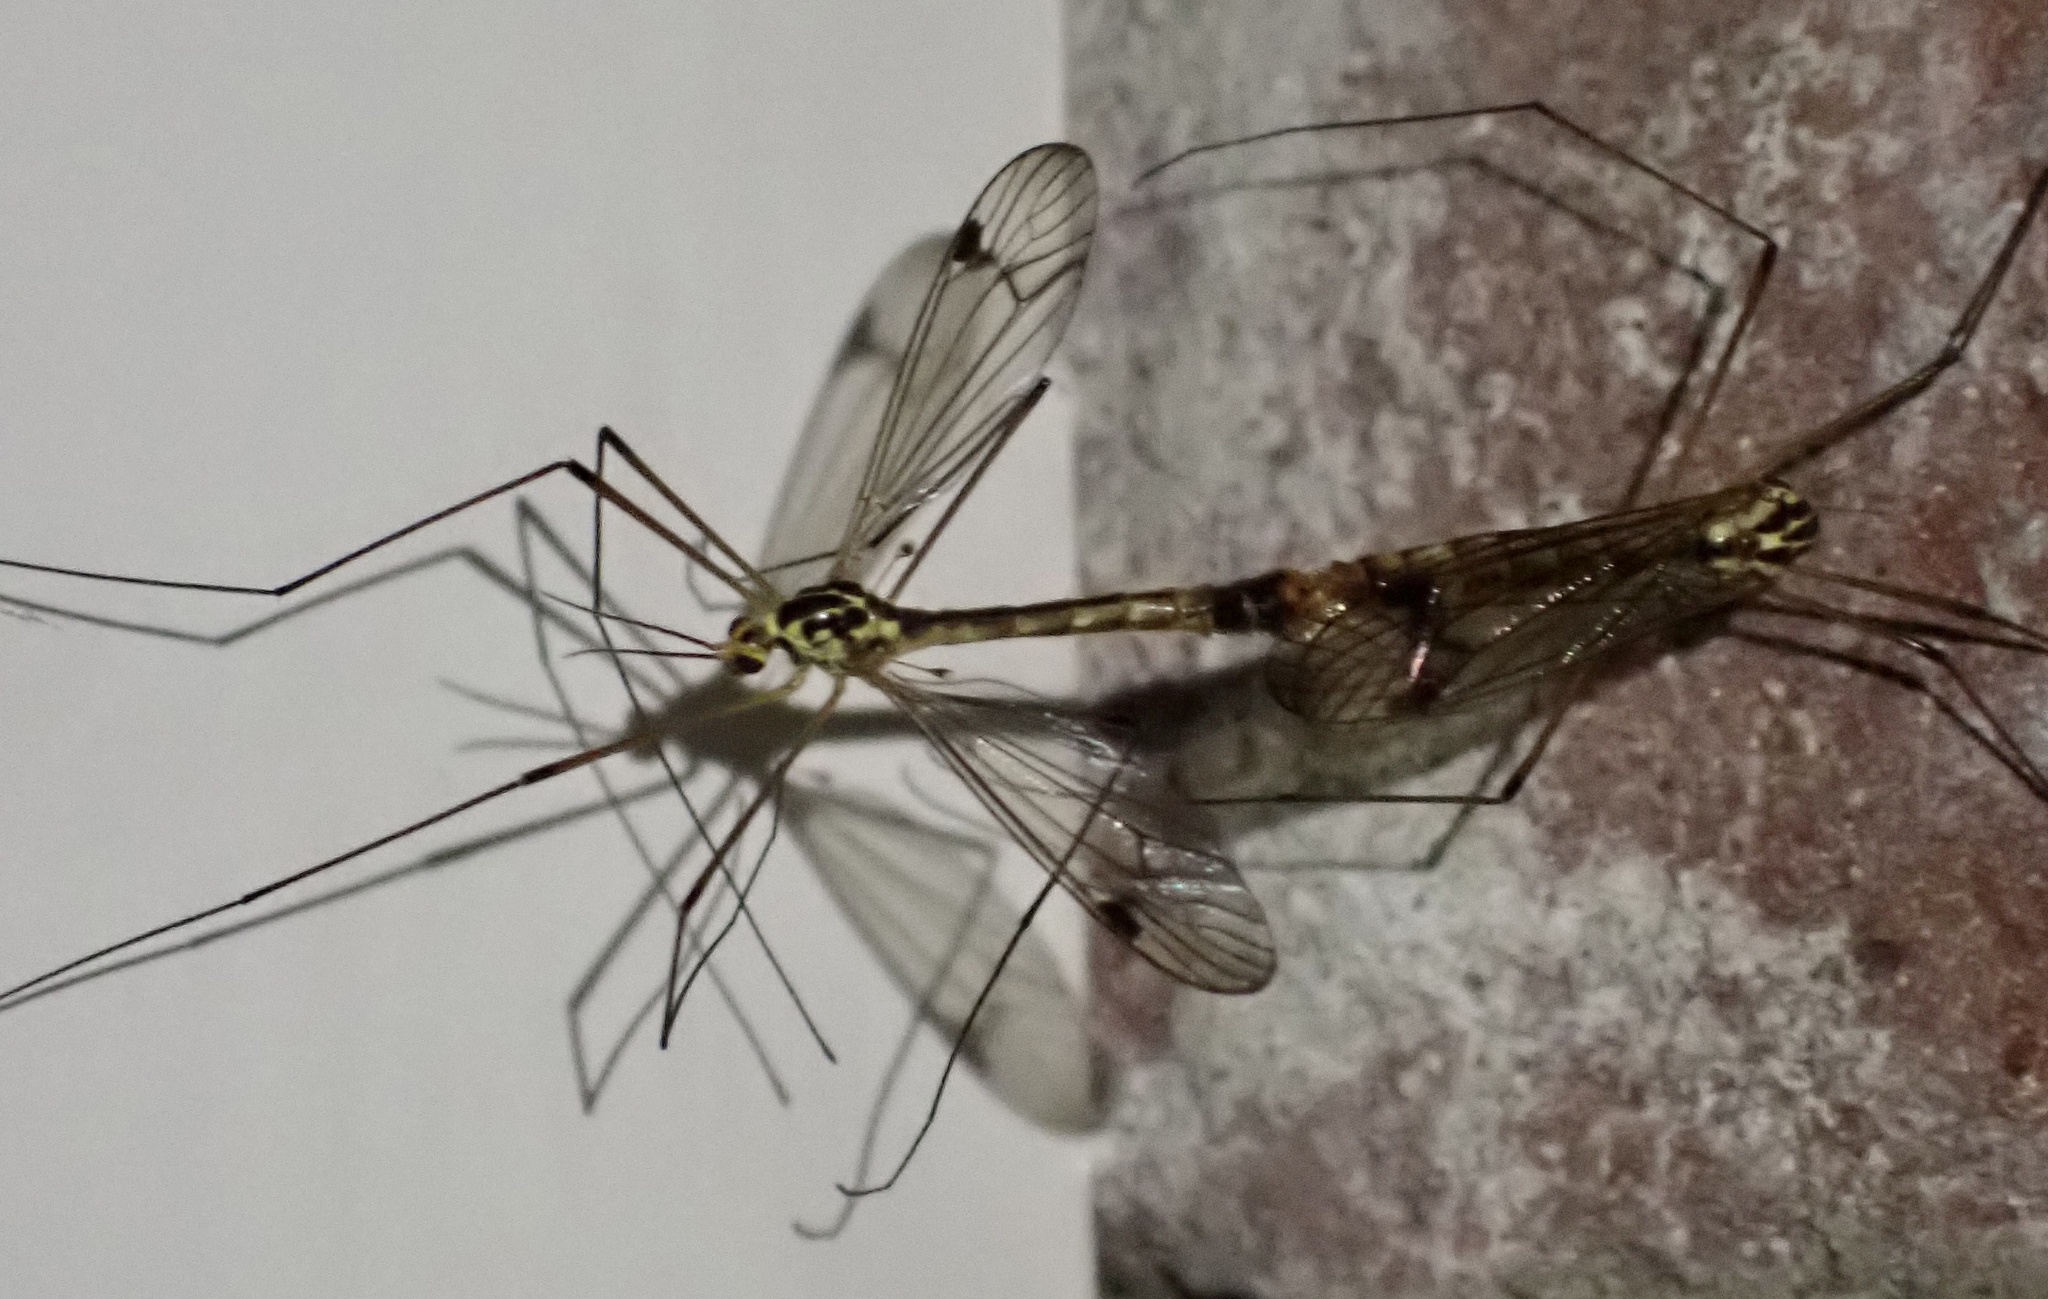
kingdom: Animalia
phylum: Arthropoda
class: Insecta
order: Diptera
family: Tipulidae
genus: Nephrotoma
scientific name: Nephrotoma quadrifaria
